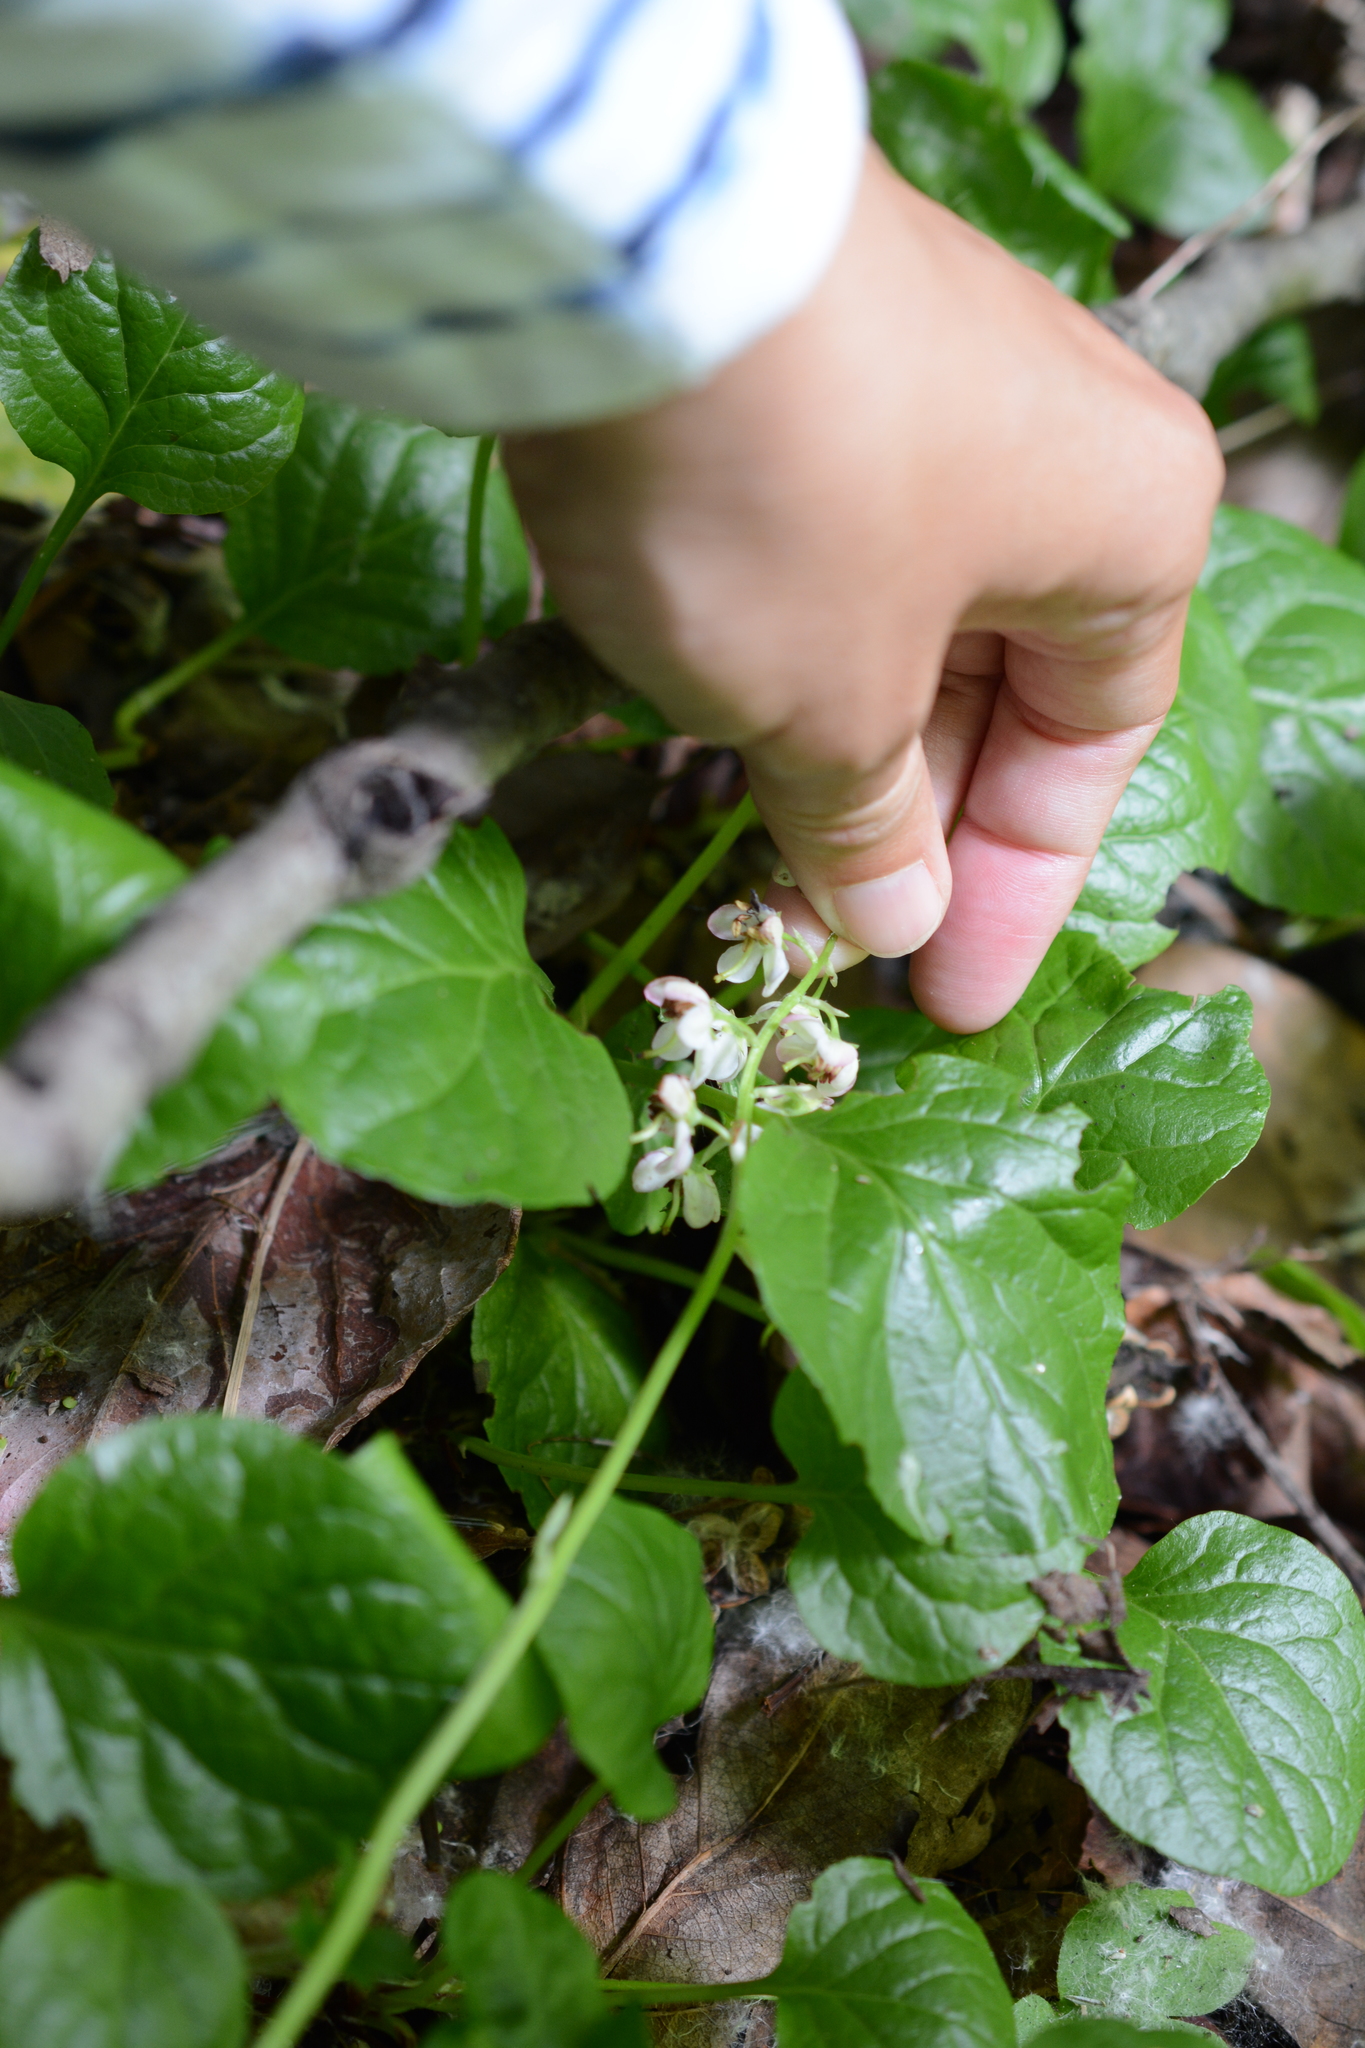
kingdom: Plantae
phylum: Tracheophyta
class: Magnoliopsida
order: Ericales
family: Ericaceae
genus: Pyrola
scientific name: Pyrola asarifolia
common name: Bog wintergreen
